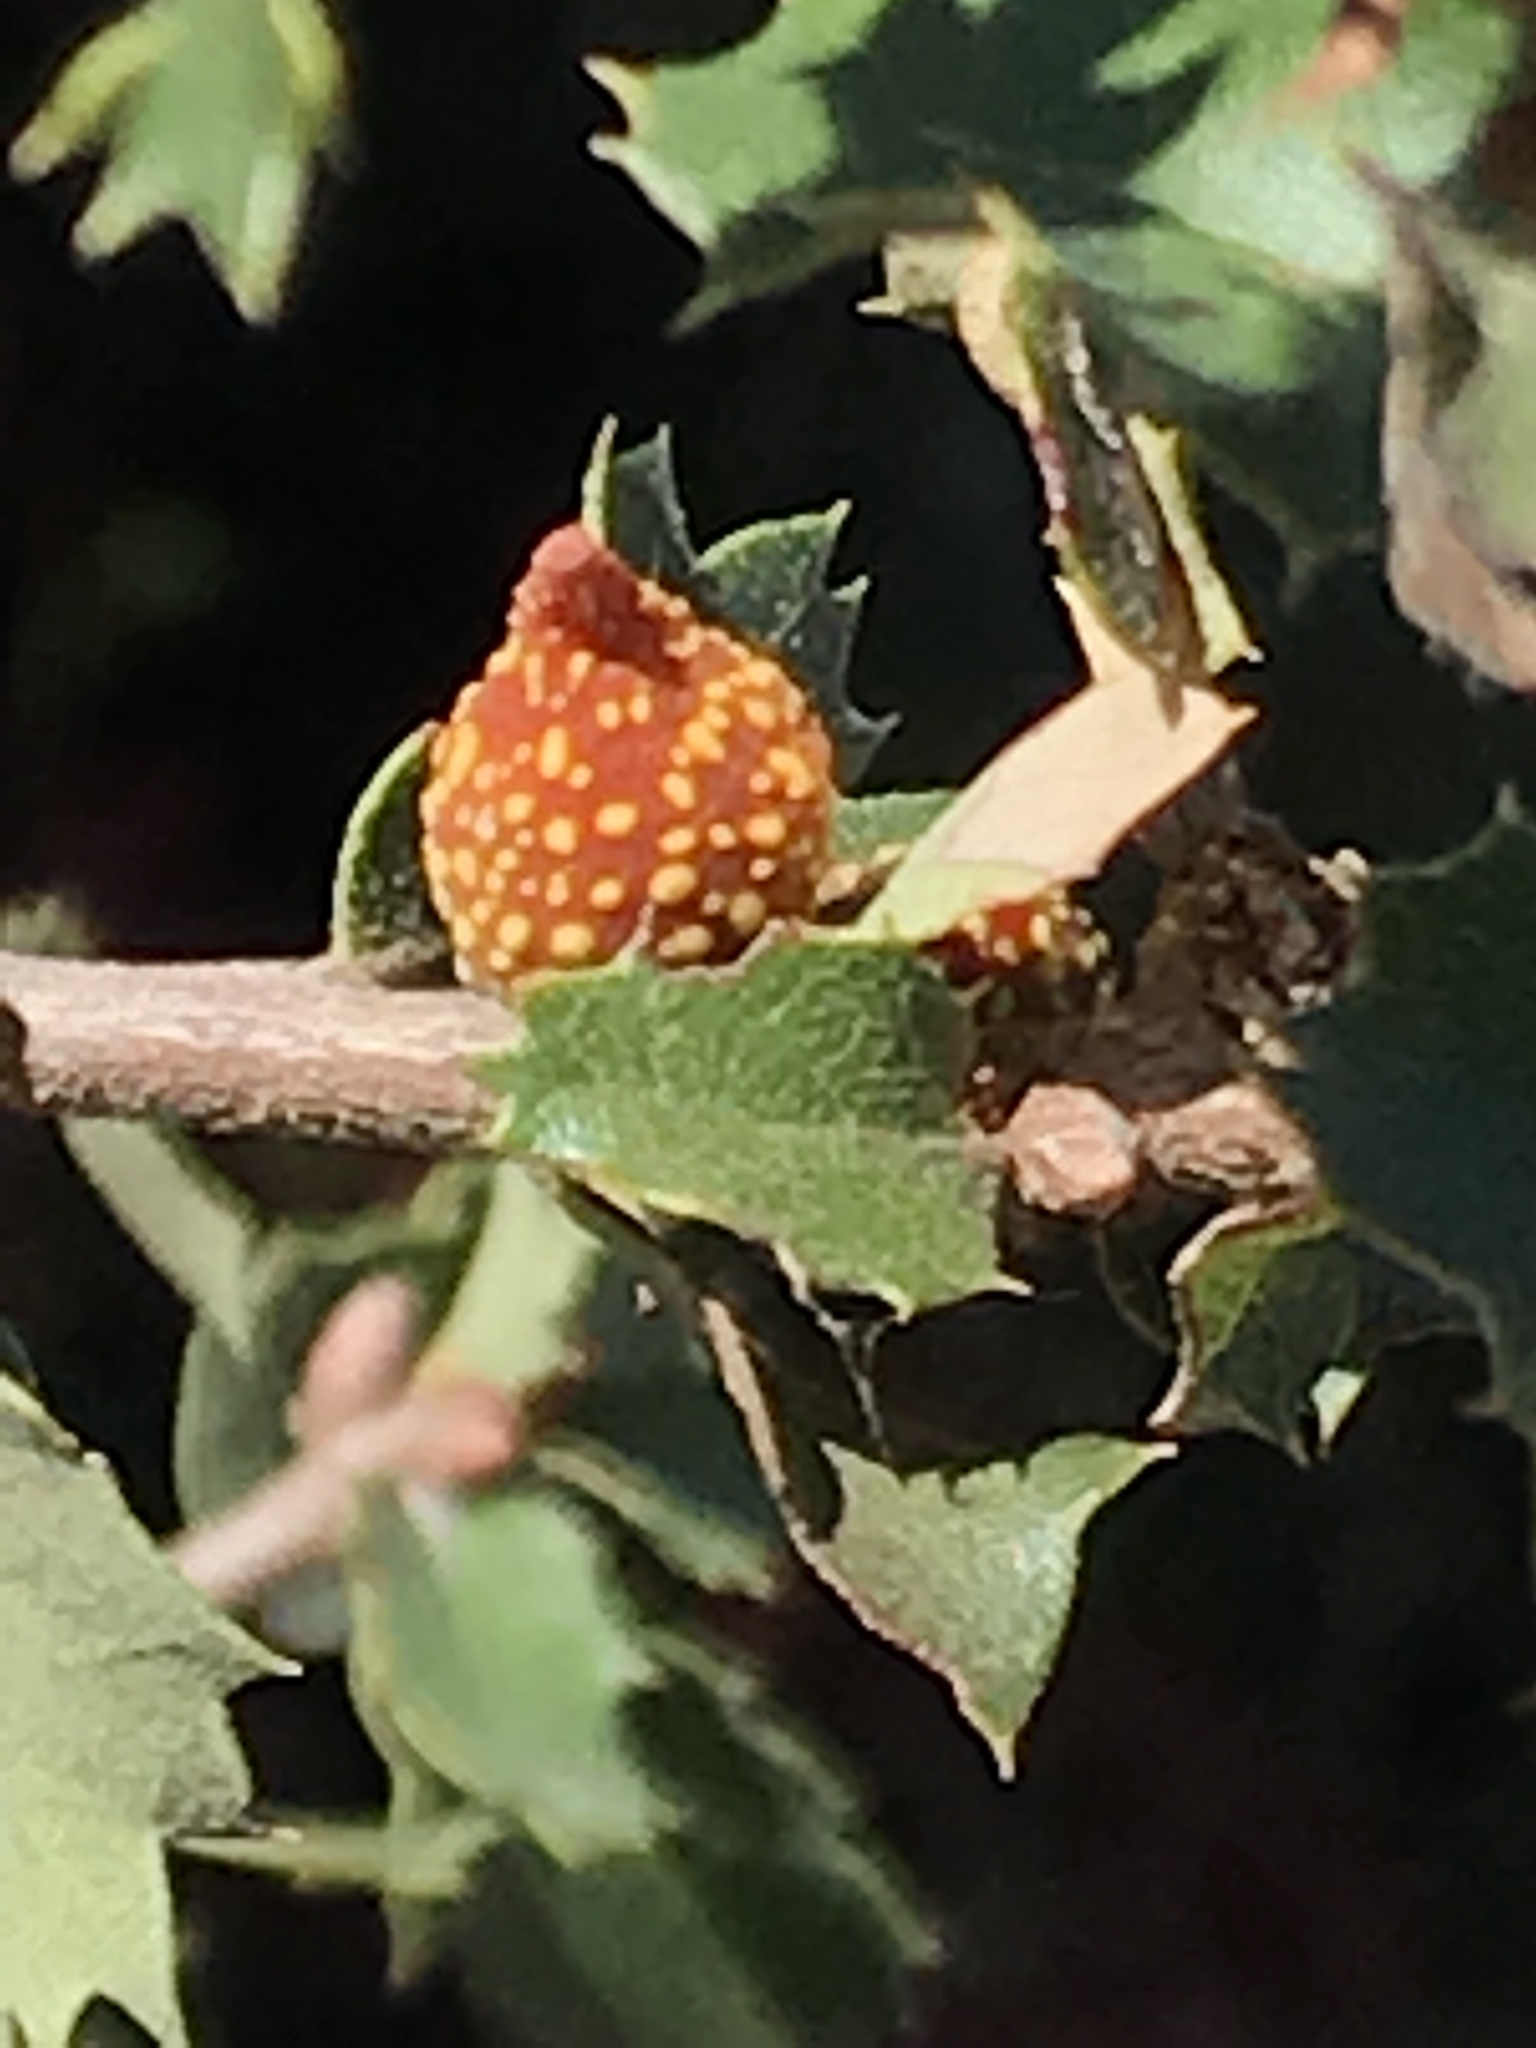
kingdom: Animalia
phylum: Arthropoda
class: Insecta
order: Hymenoptera
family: Cynipidae
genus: Burnettweldia
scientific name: Burnettweldia
